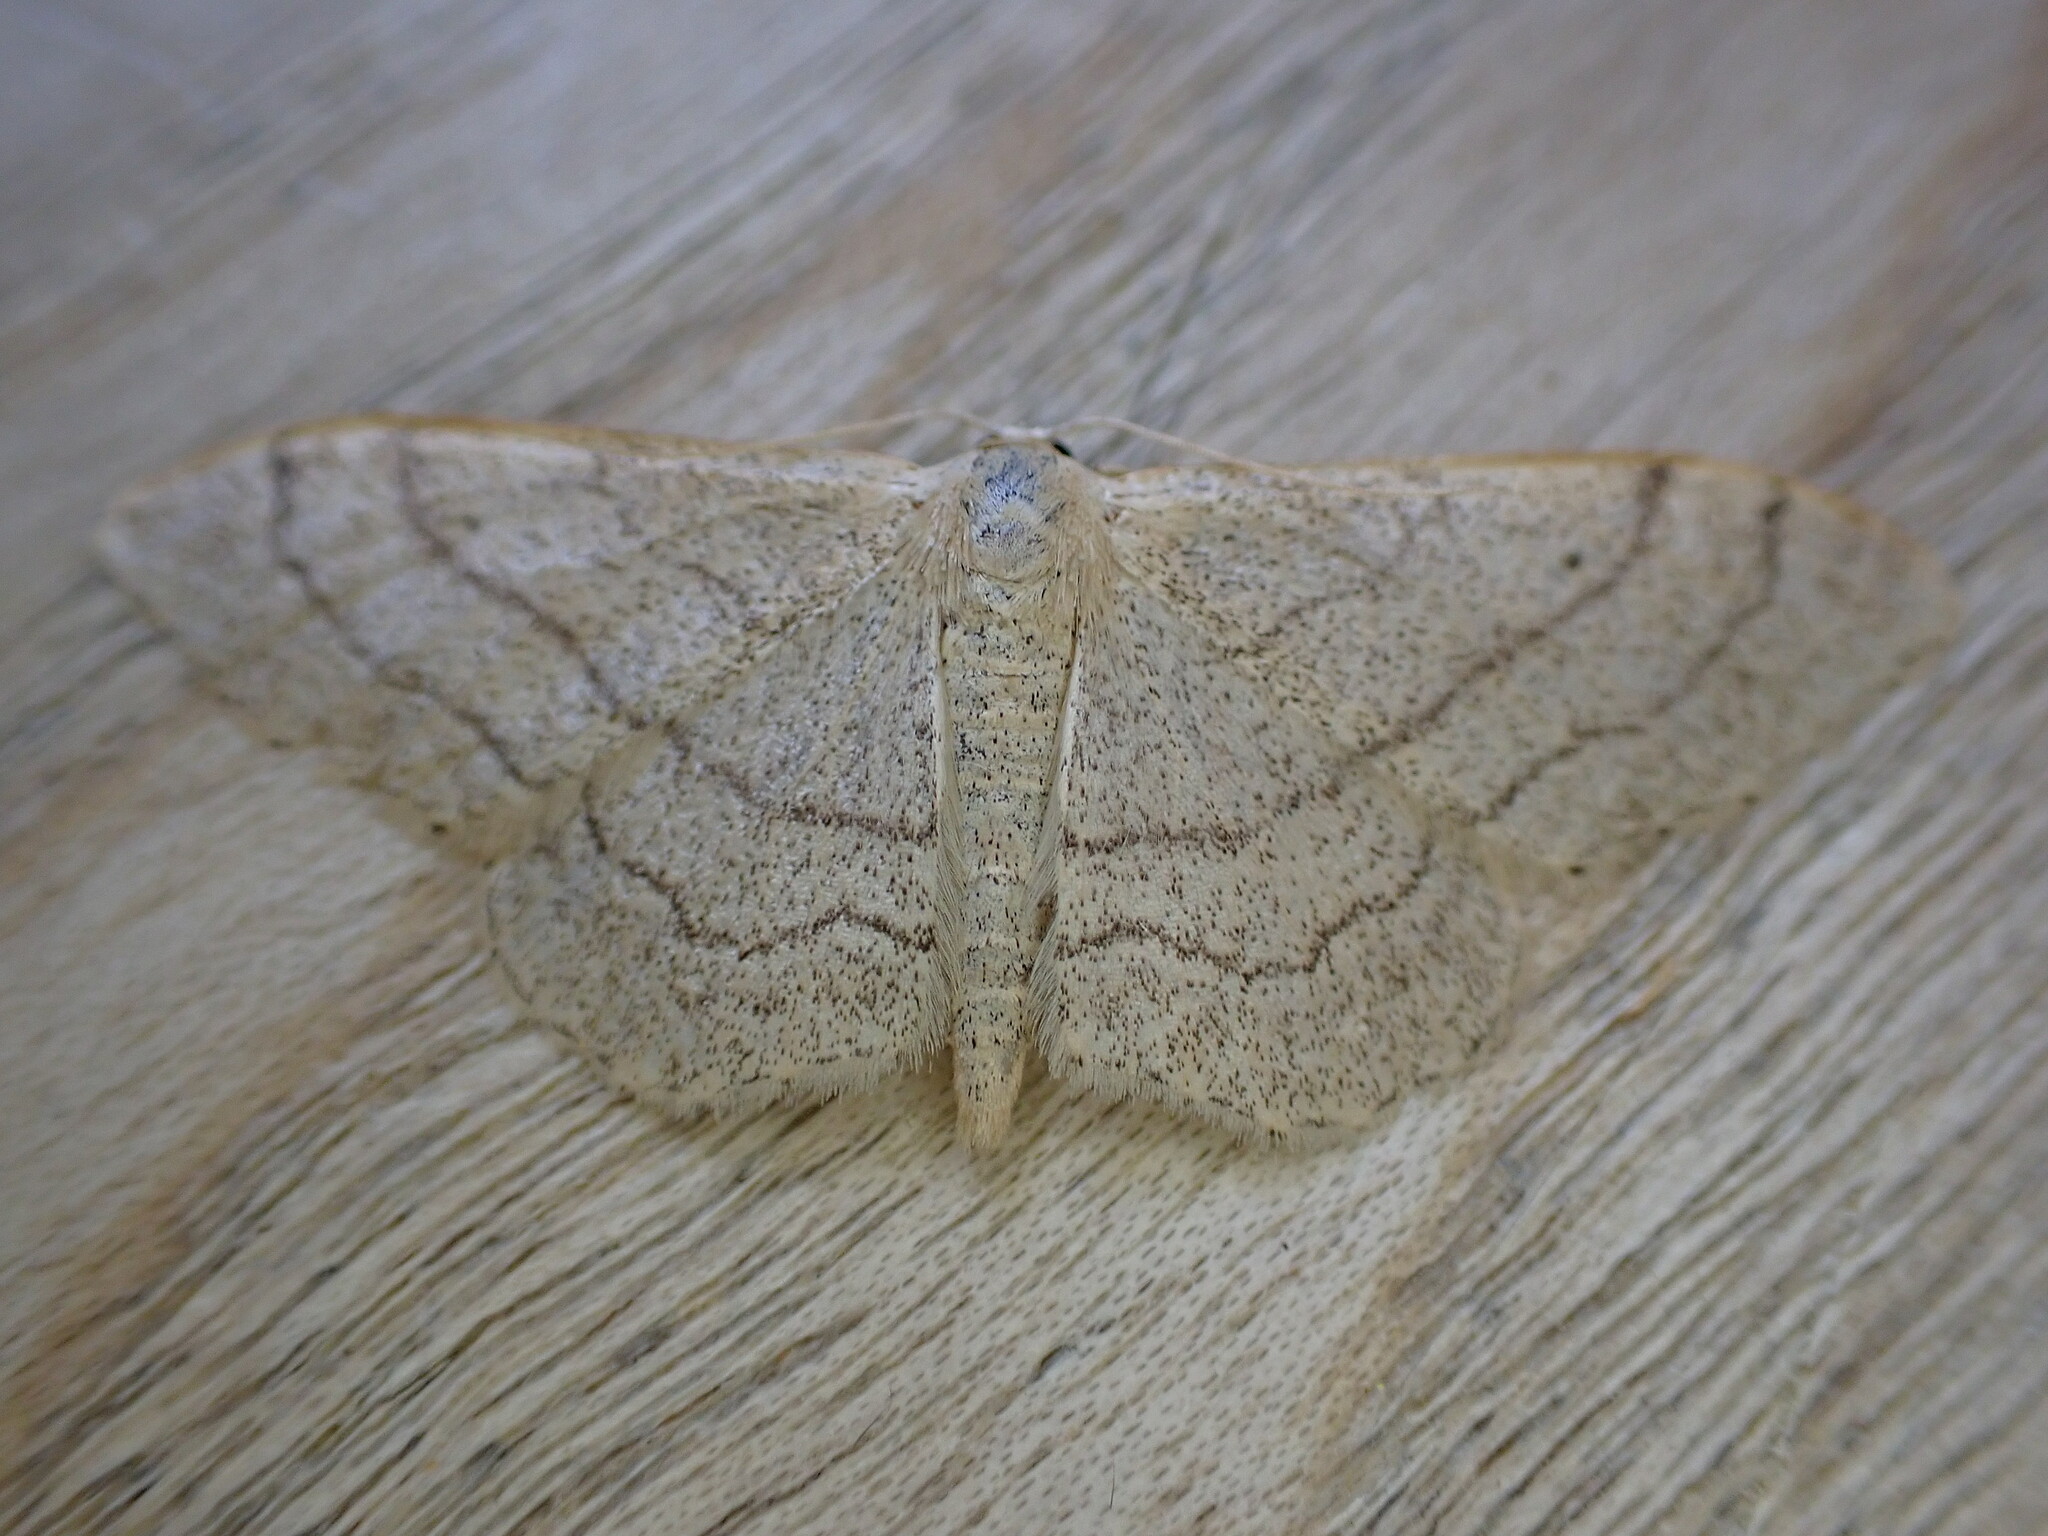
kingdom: Animalia
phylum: Arthropoda
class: Insecta
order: Lepidoptera
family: Geometridae
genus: Idaea
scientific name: Idaea aversata
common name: Riband wave
